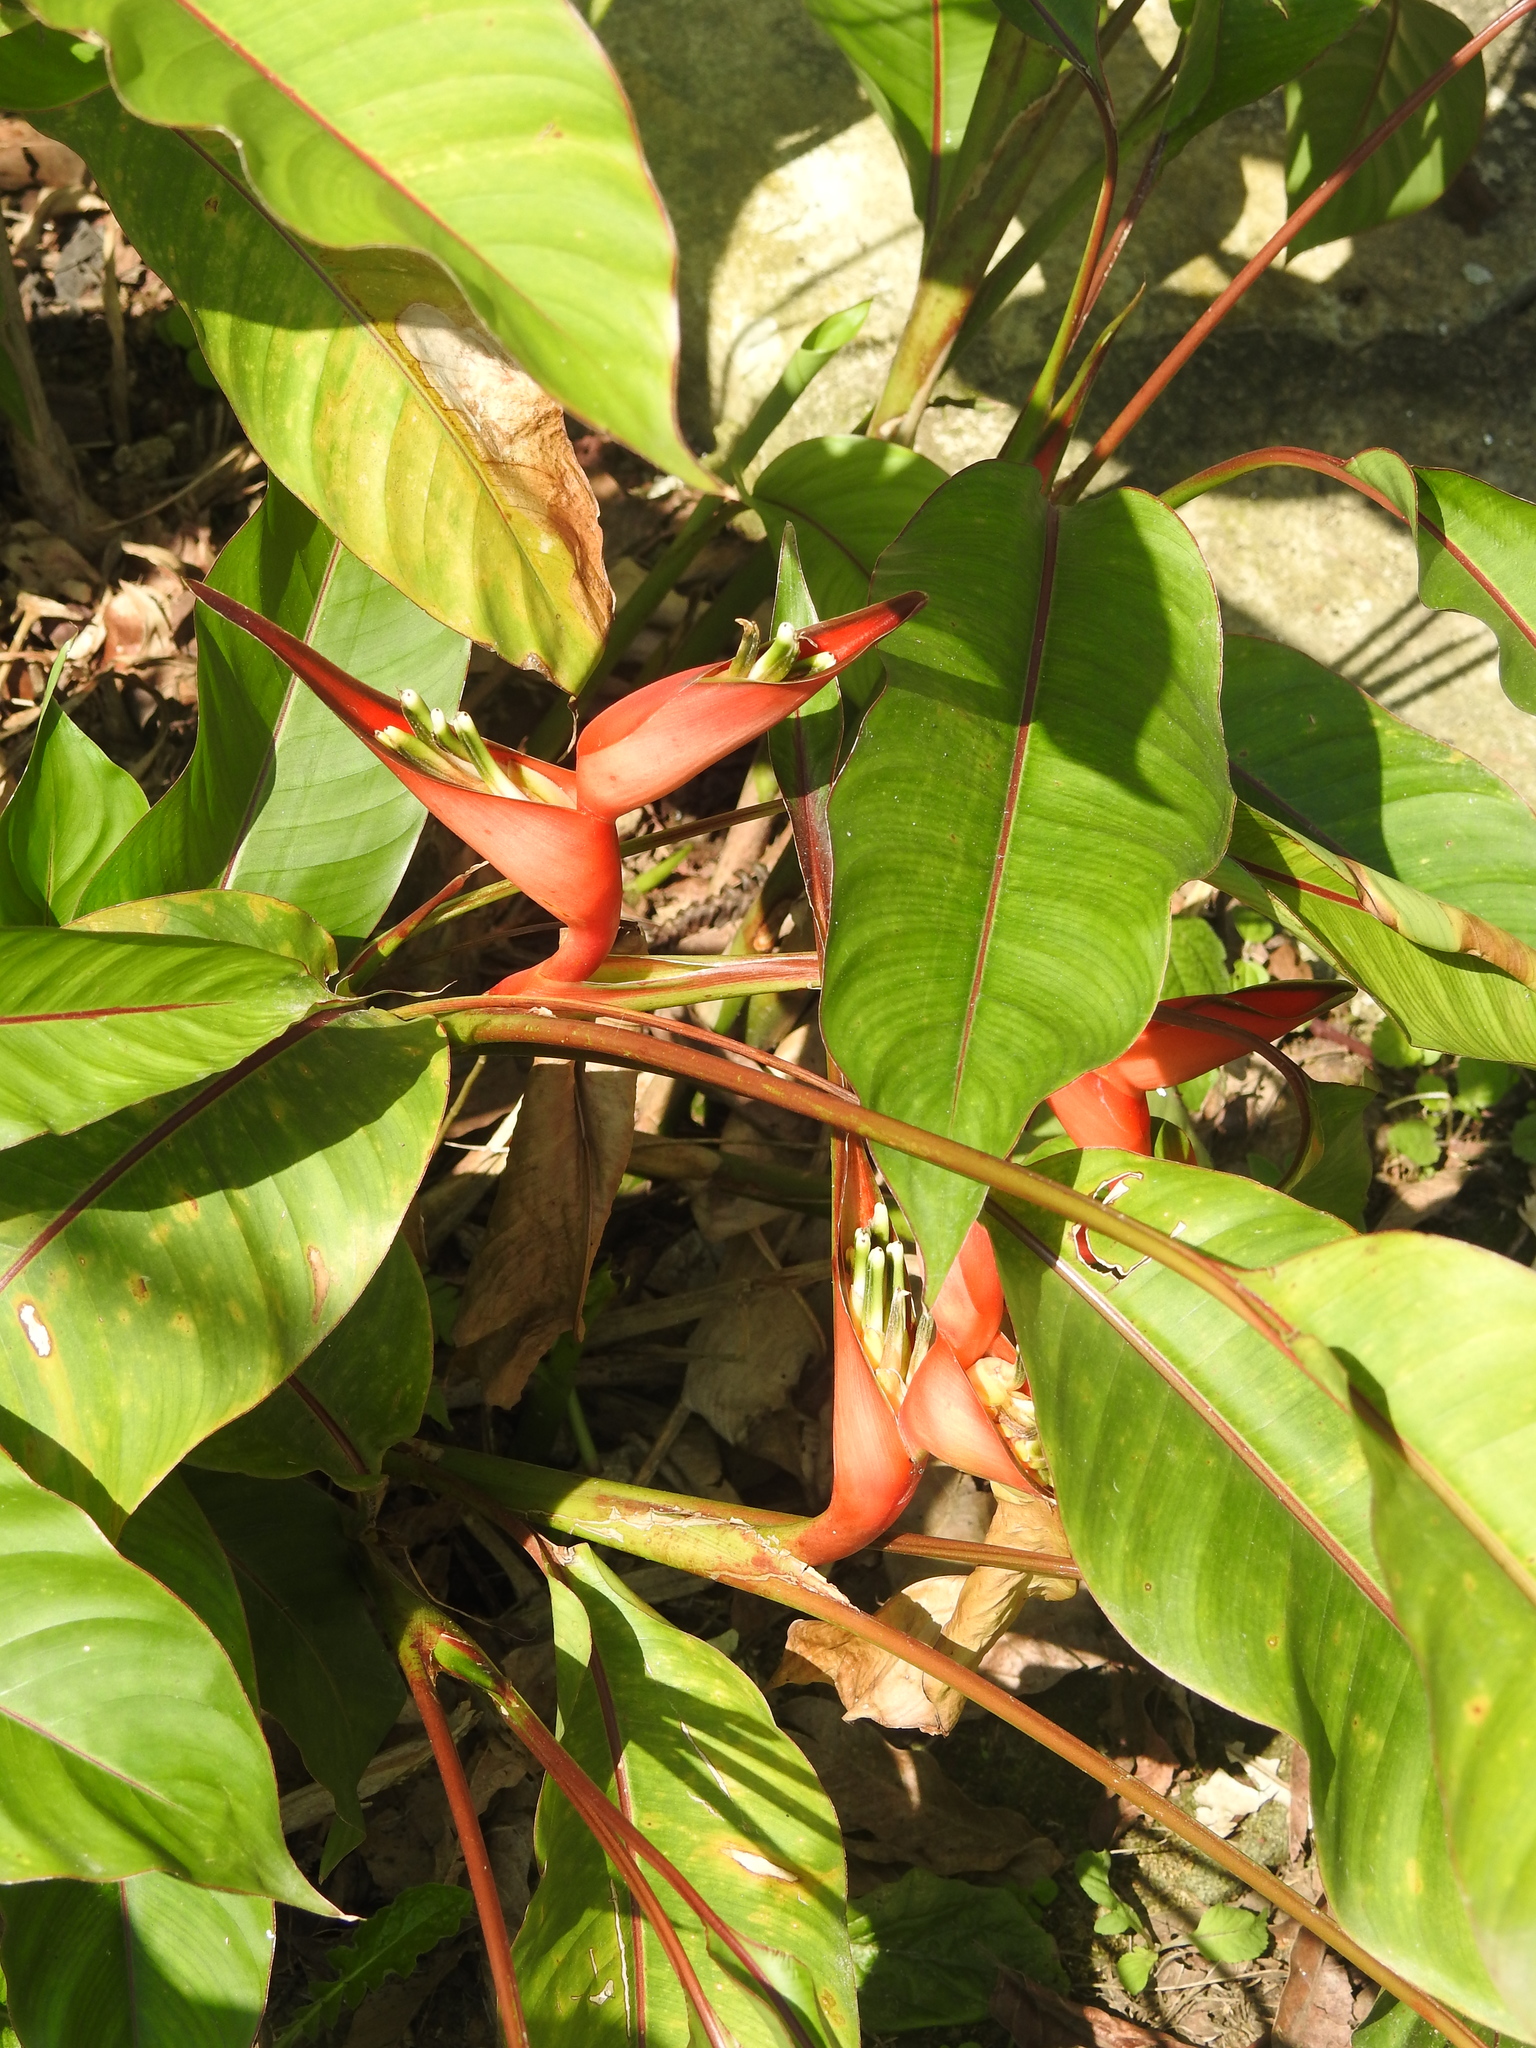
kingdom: Plantae
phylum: Tracheophyta
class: Liliopsida
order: Zingiberales
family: Heliconiaceae
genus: Heliconia
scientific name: Heliconia stricta
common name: Small lobster claw
